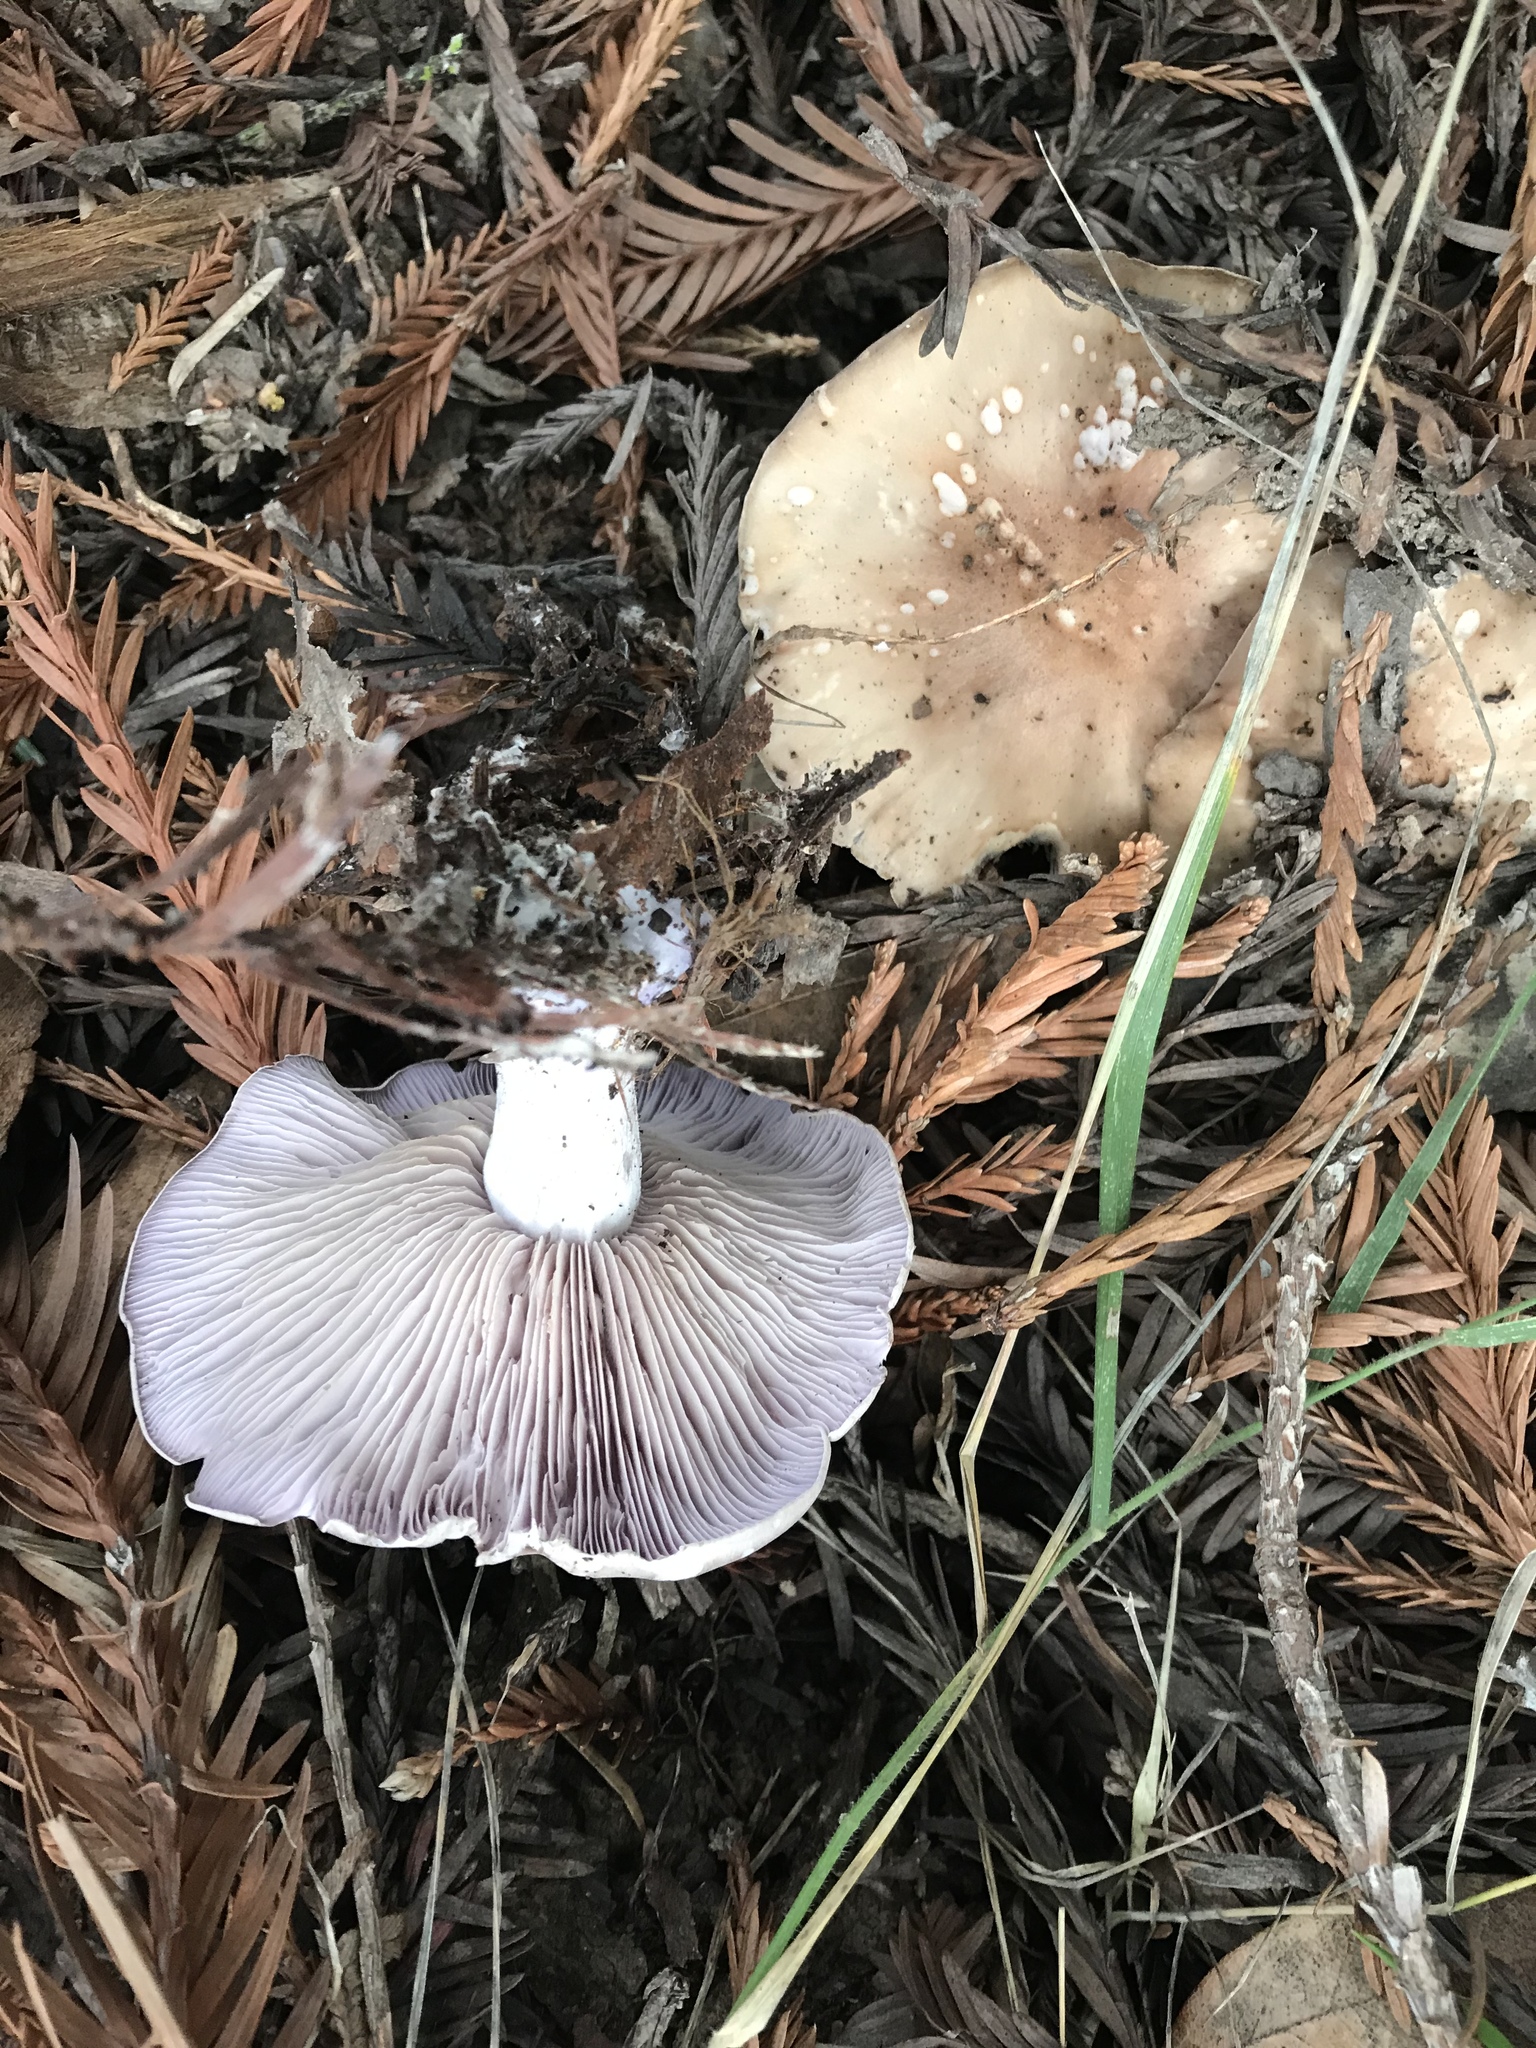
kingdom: Fungi
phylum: Basidiomycota
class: Agaricomycetes
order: Agaricales
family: Tricholomataceae
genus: Collybia
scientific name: Collybia
